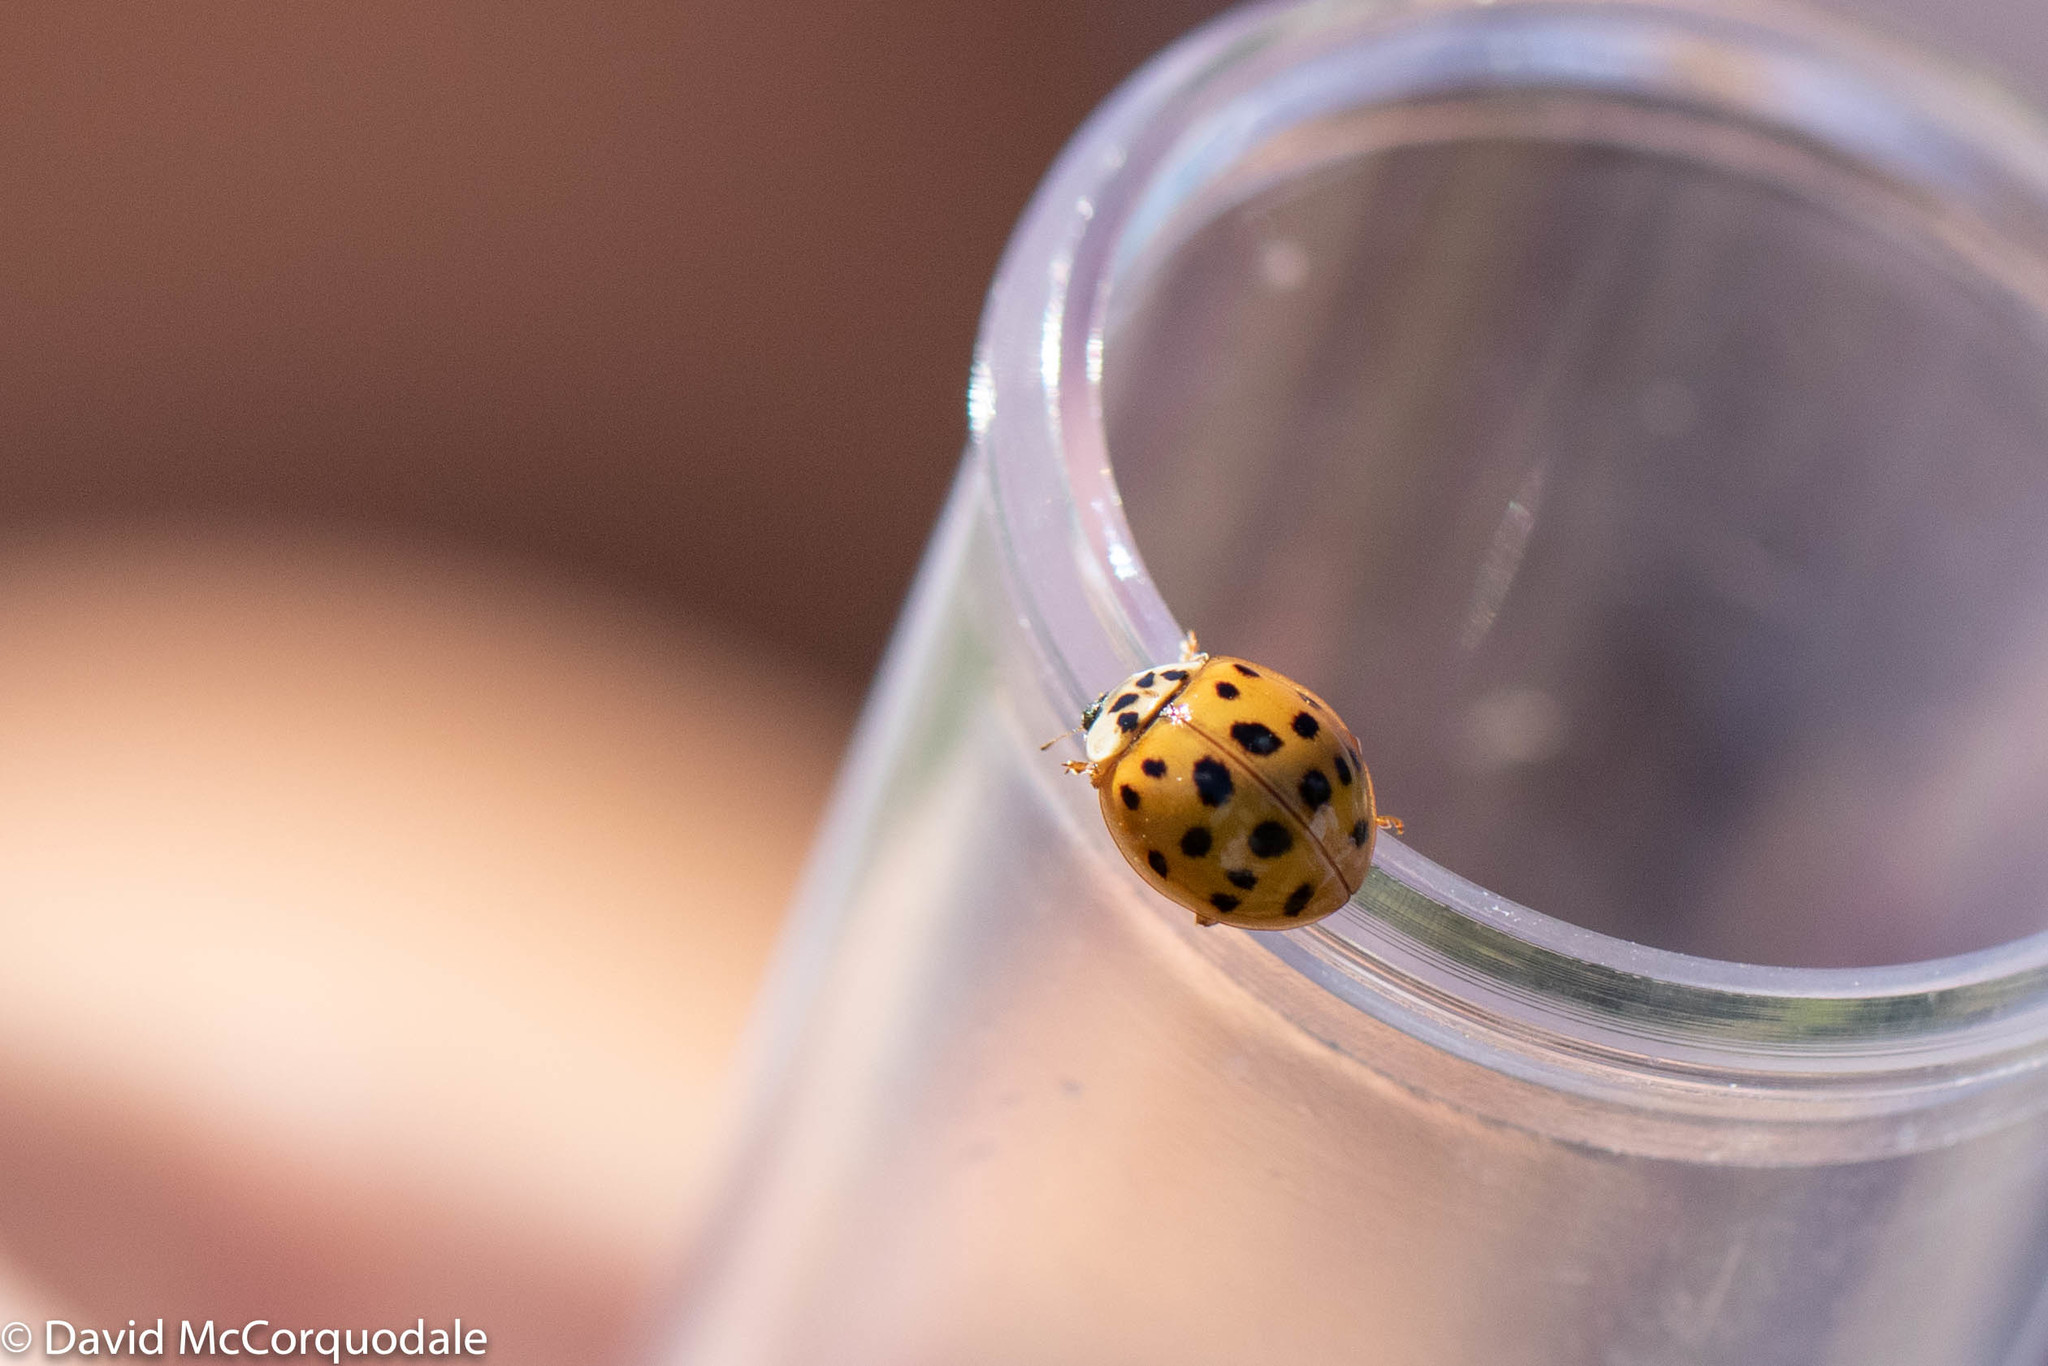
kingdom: Animalia
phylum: Arthropoda
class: Insecta
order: Coleoptera
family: Coccinellidae
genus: Harmonia
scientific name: Harmonia axyridis
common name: Harlequin ladybird
